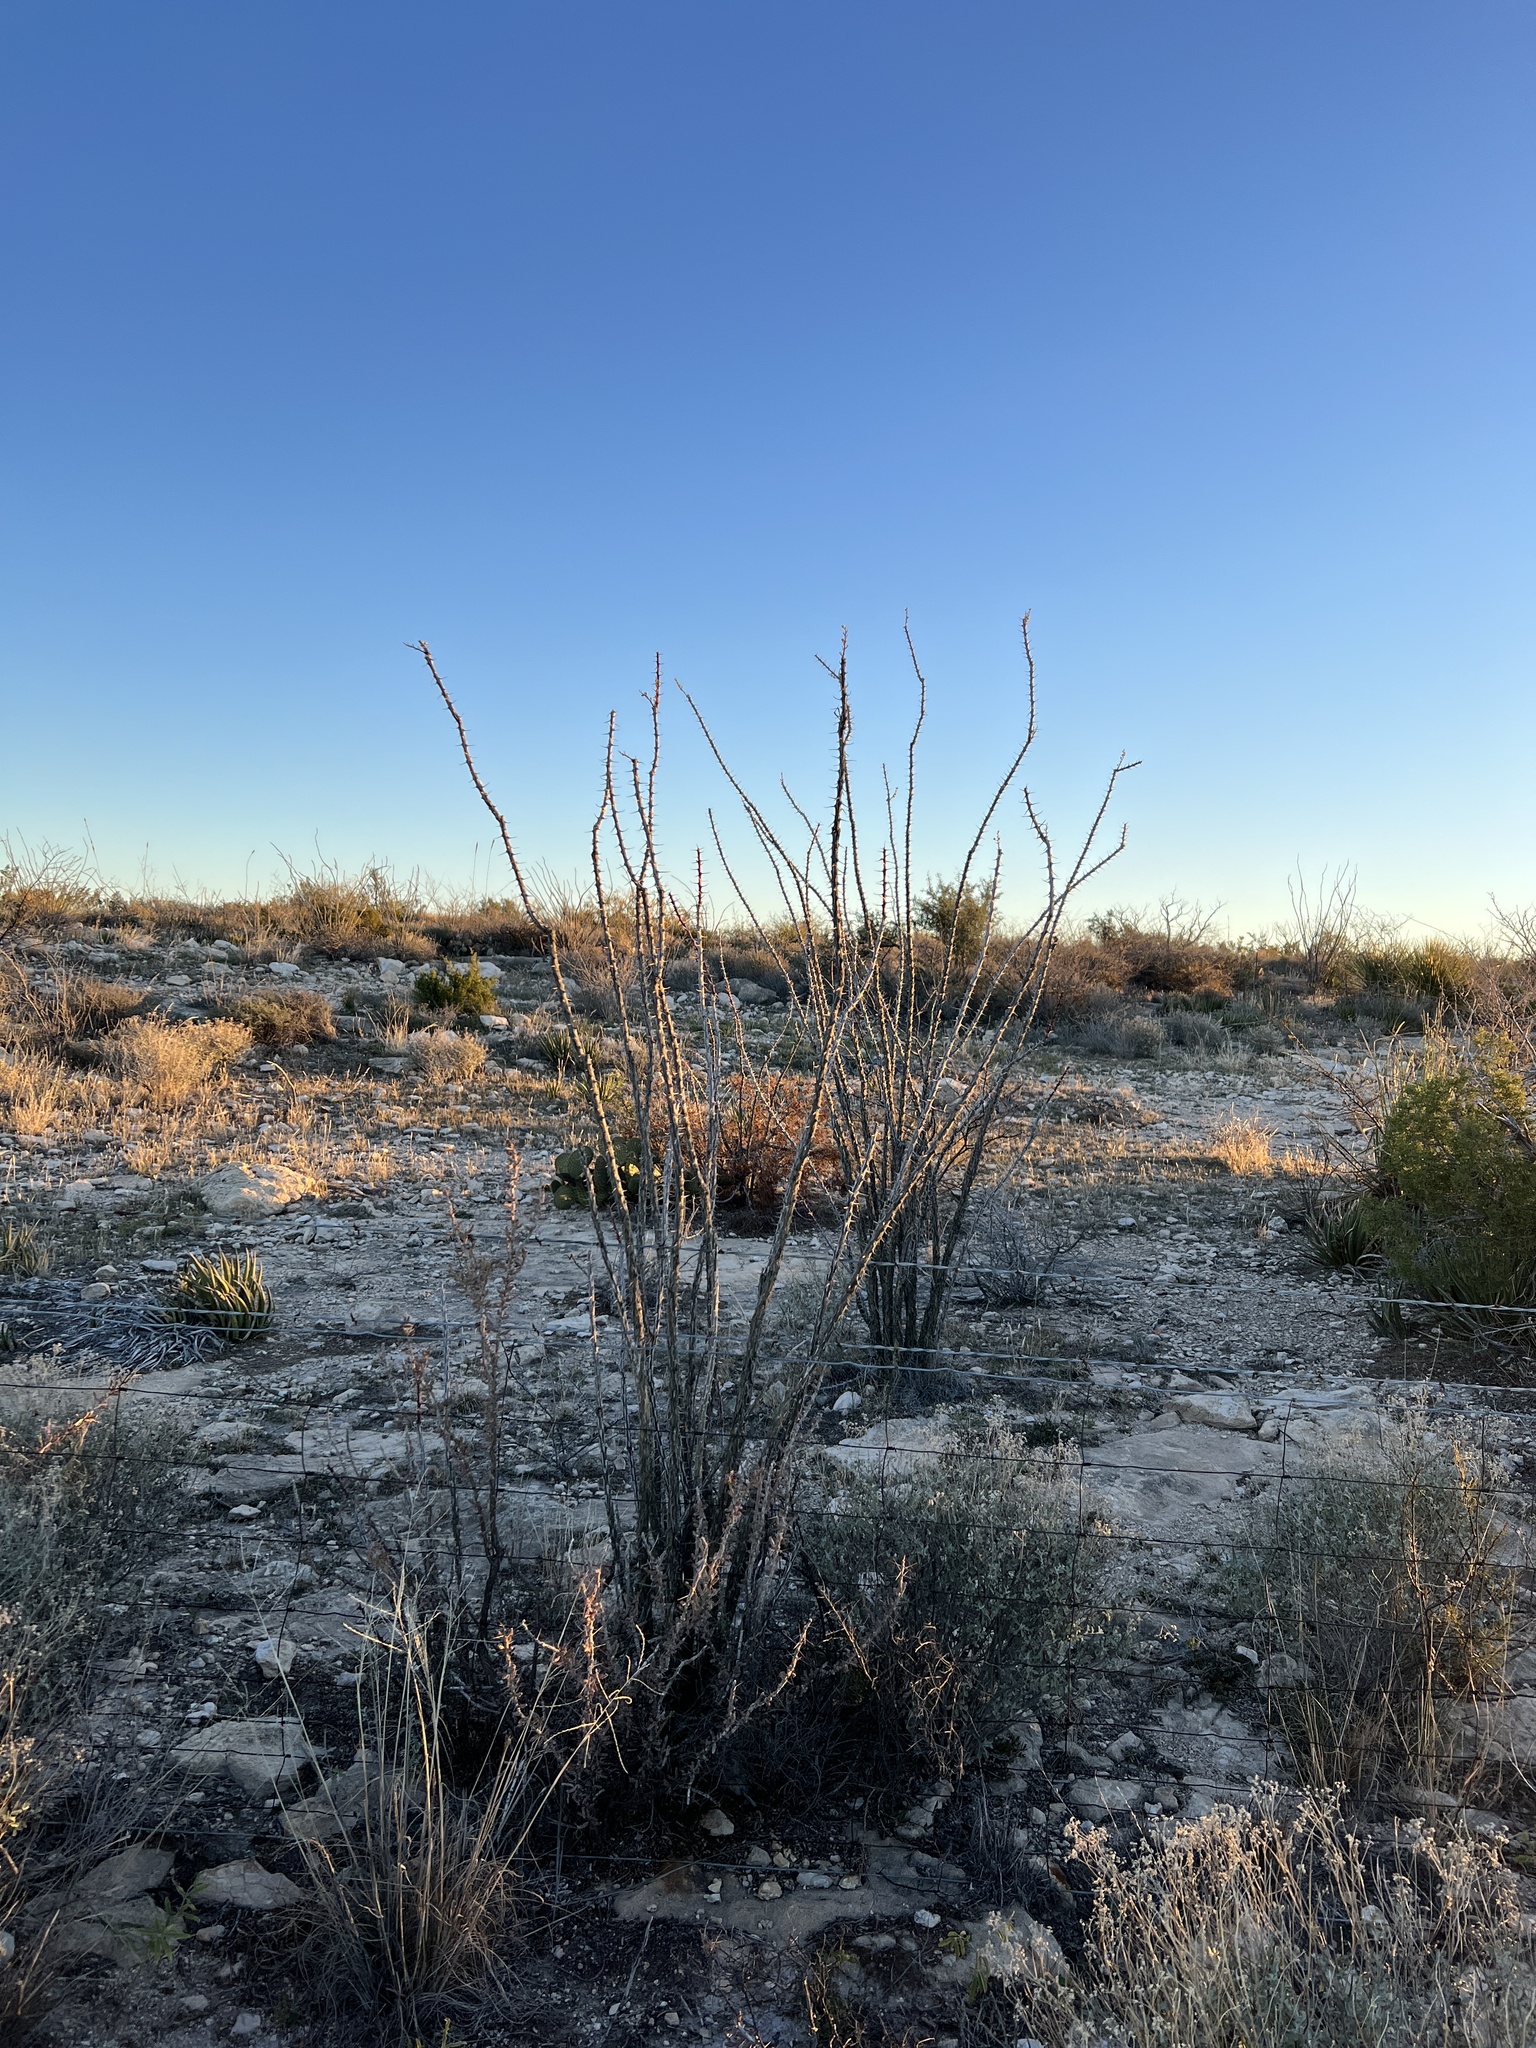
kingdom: Plantae
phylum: Tracheophyta
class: Magnoliopsida
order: Ericales
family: Fouquieriaceae
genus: Fouquieria
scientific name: Fouquieria splendens
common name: Vine-cactus
